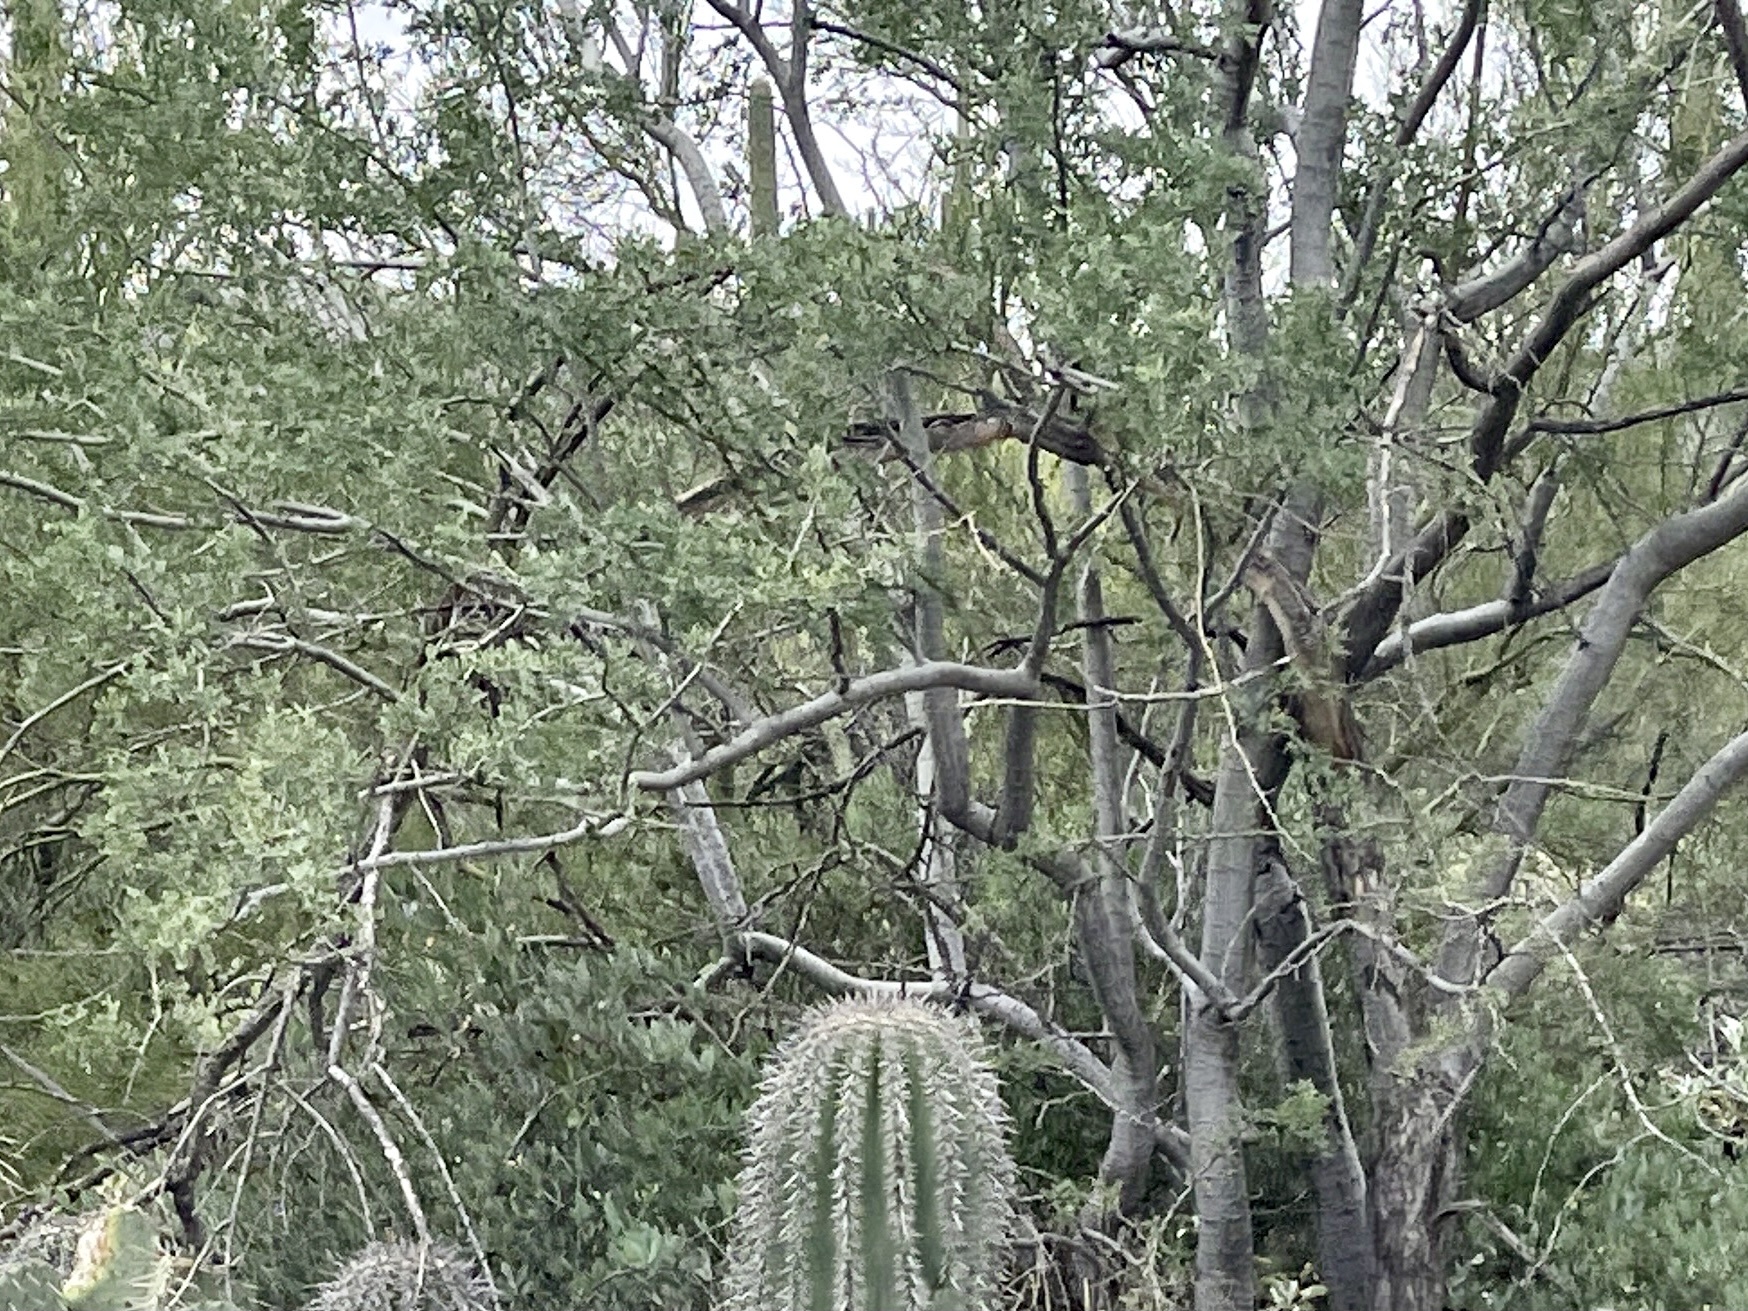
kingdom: Plantae
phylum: Tracheophyta
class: Magnoliopsida
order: Fabales
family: Fabaceae
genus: Olneya
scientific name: Olneya tesota
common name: Desert ironwood
